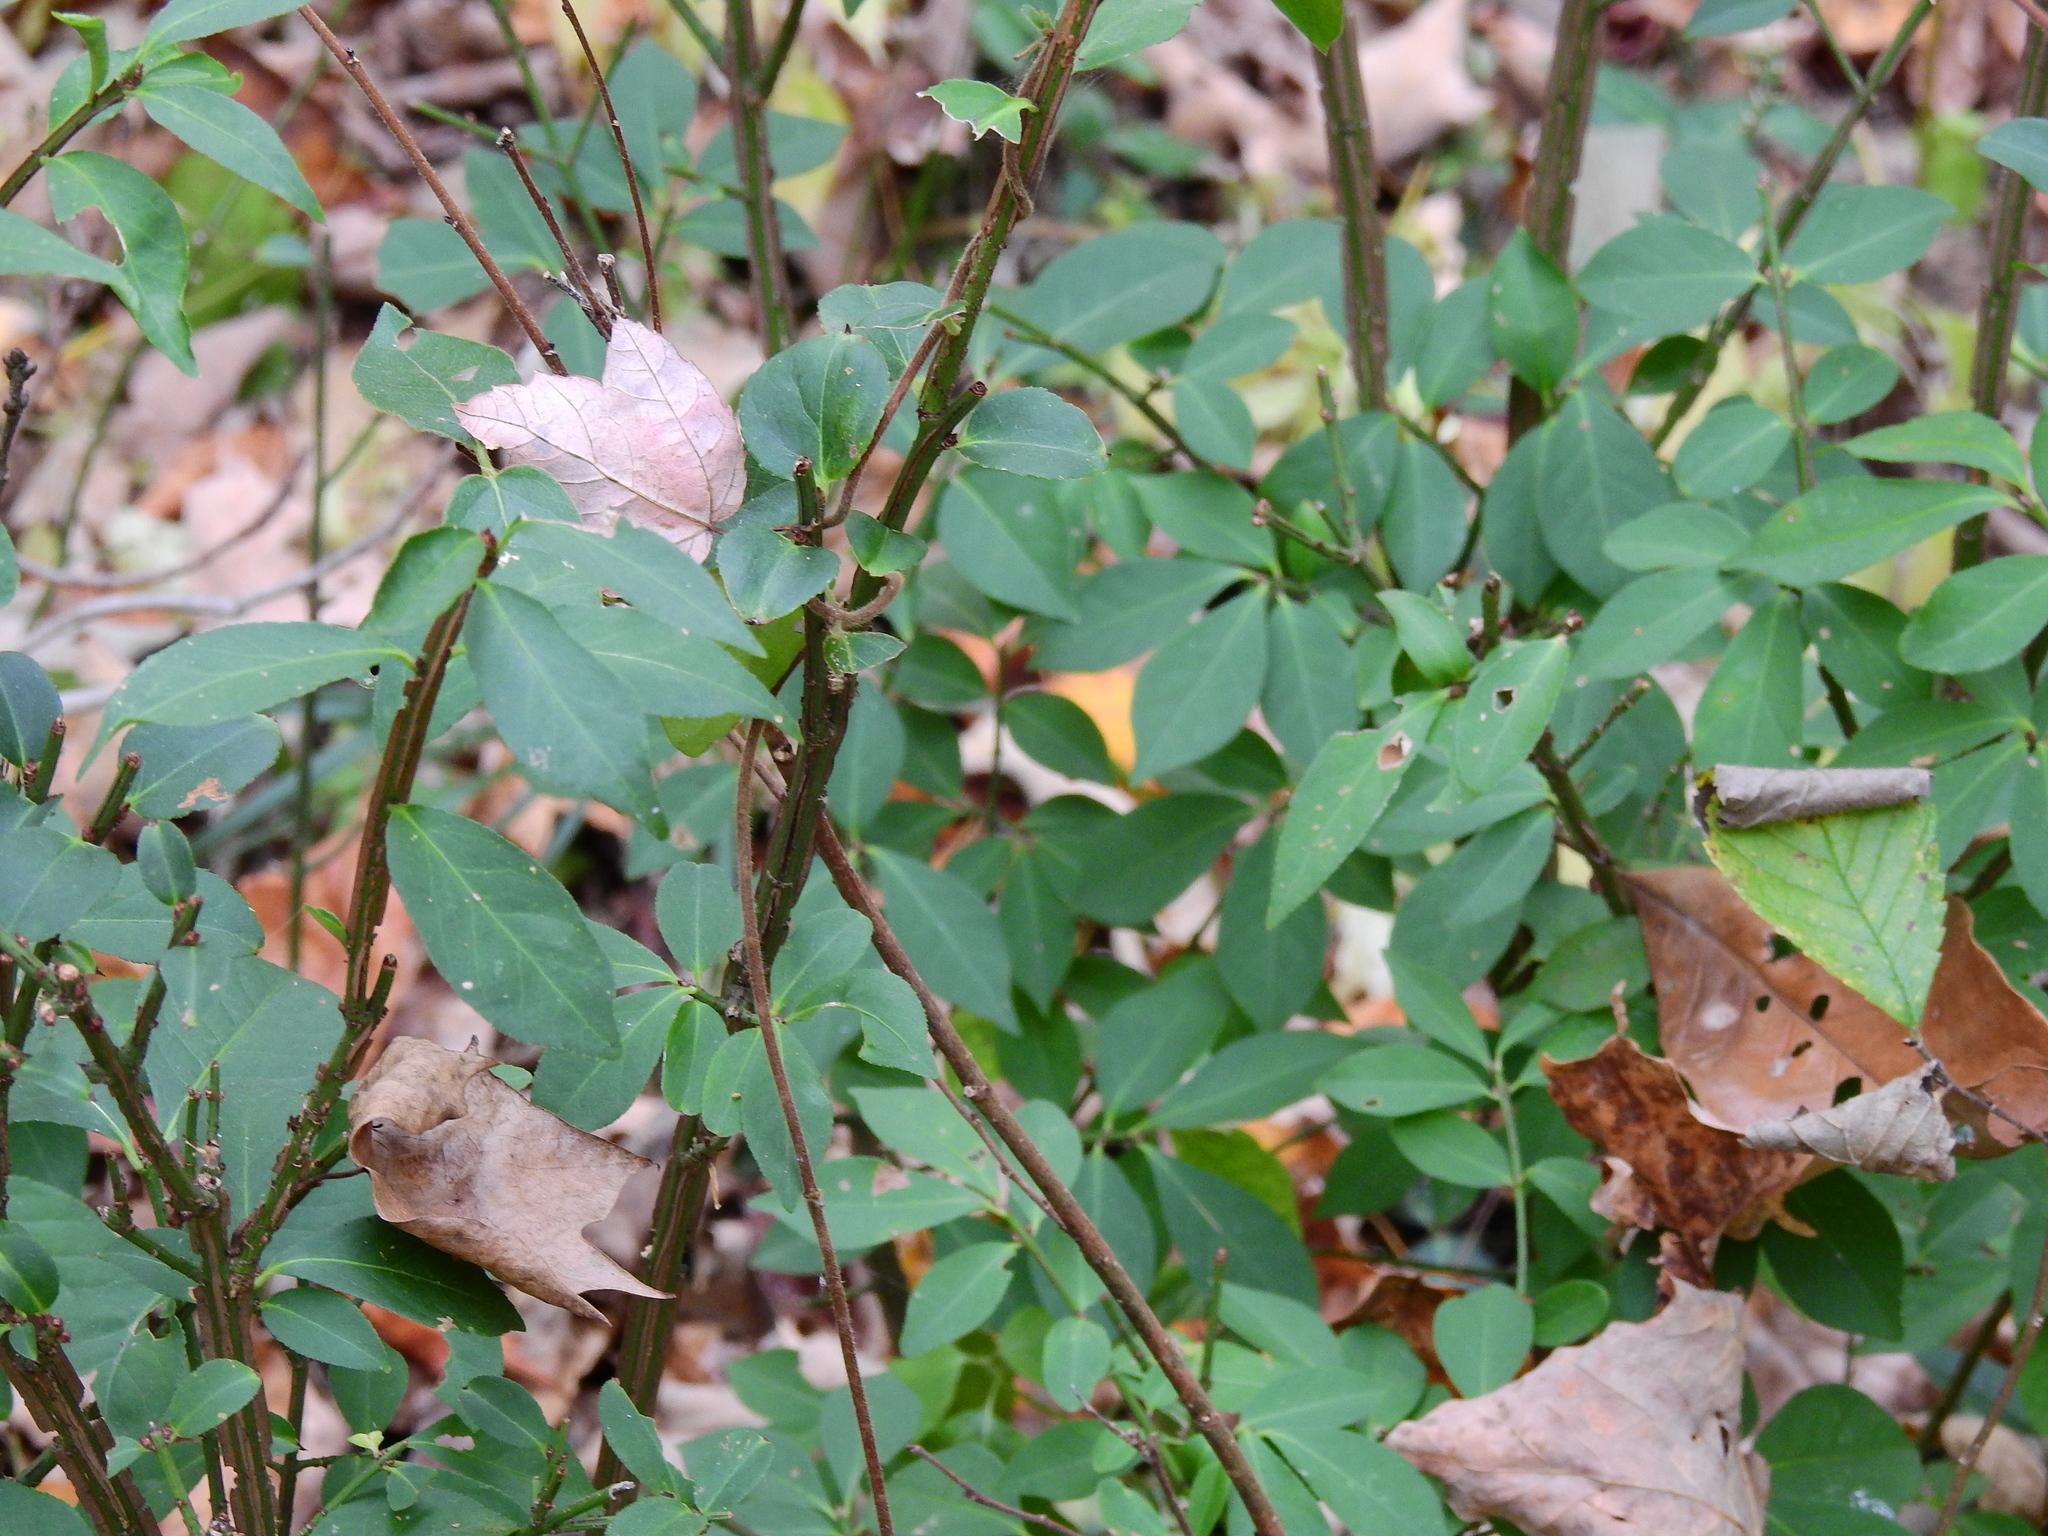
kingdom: Plantae
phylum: Tracheophyta
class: Magnoliopsida
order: Celastrales
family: Celastraceae
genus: Euonymus
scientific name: Euonymus alatus
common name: Winged euonymus
